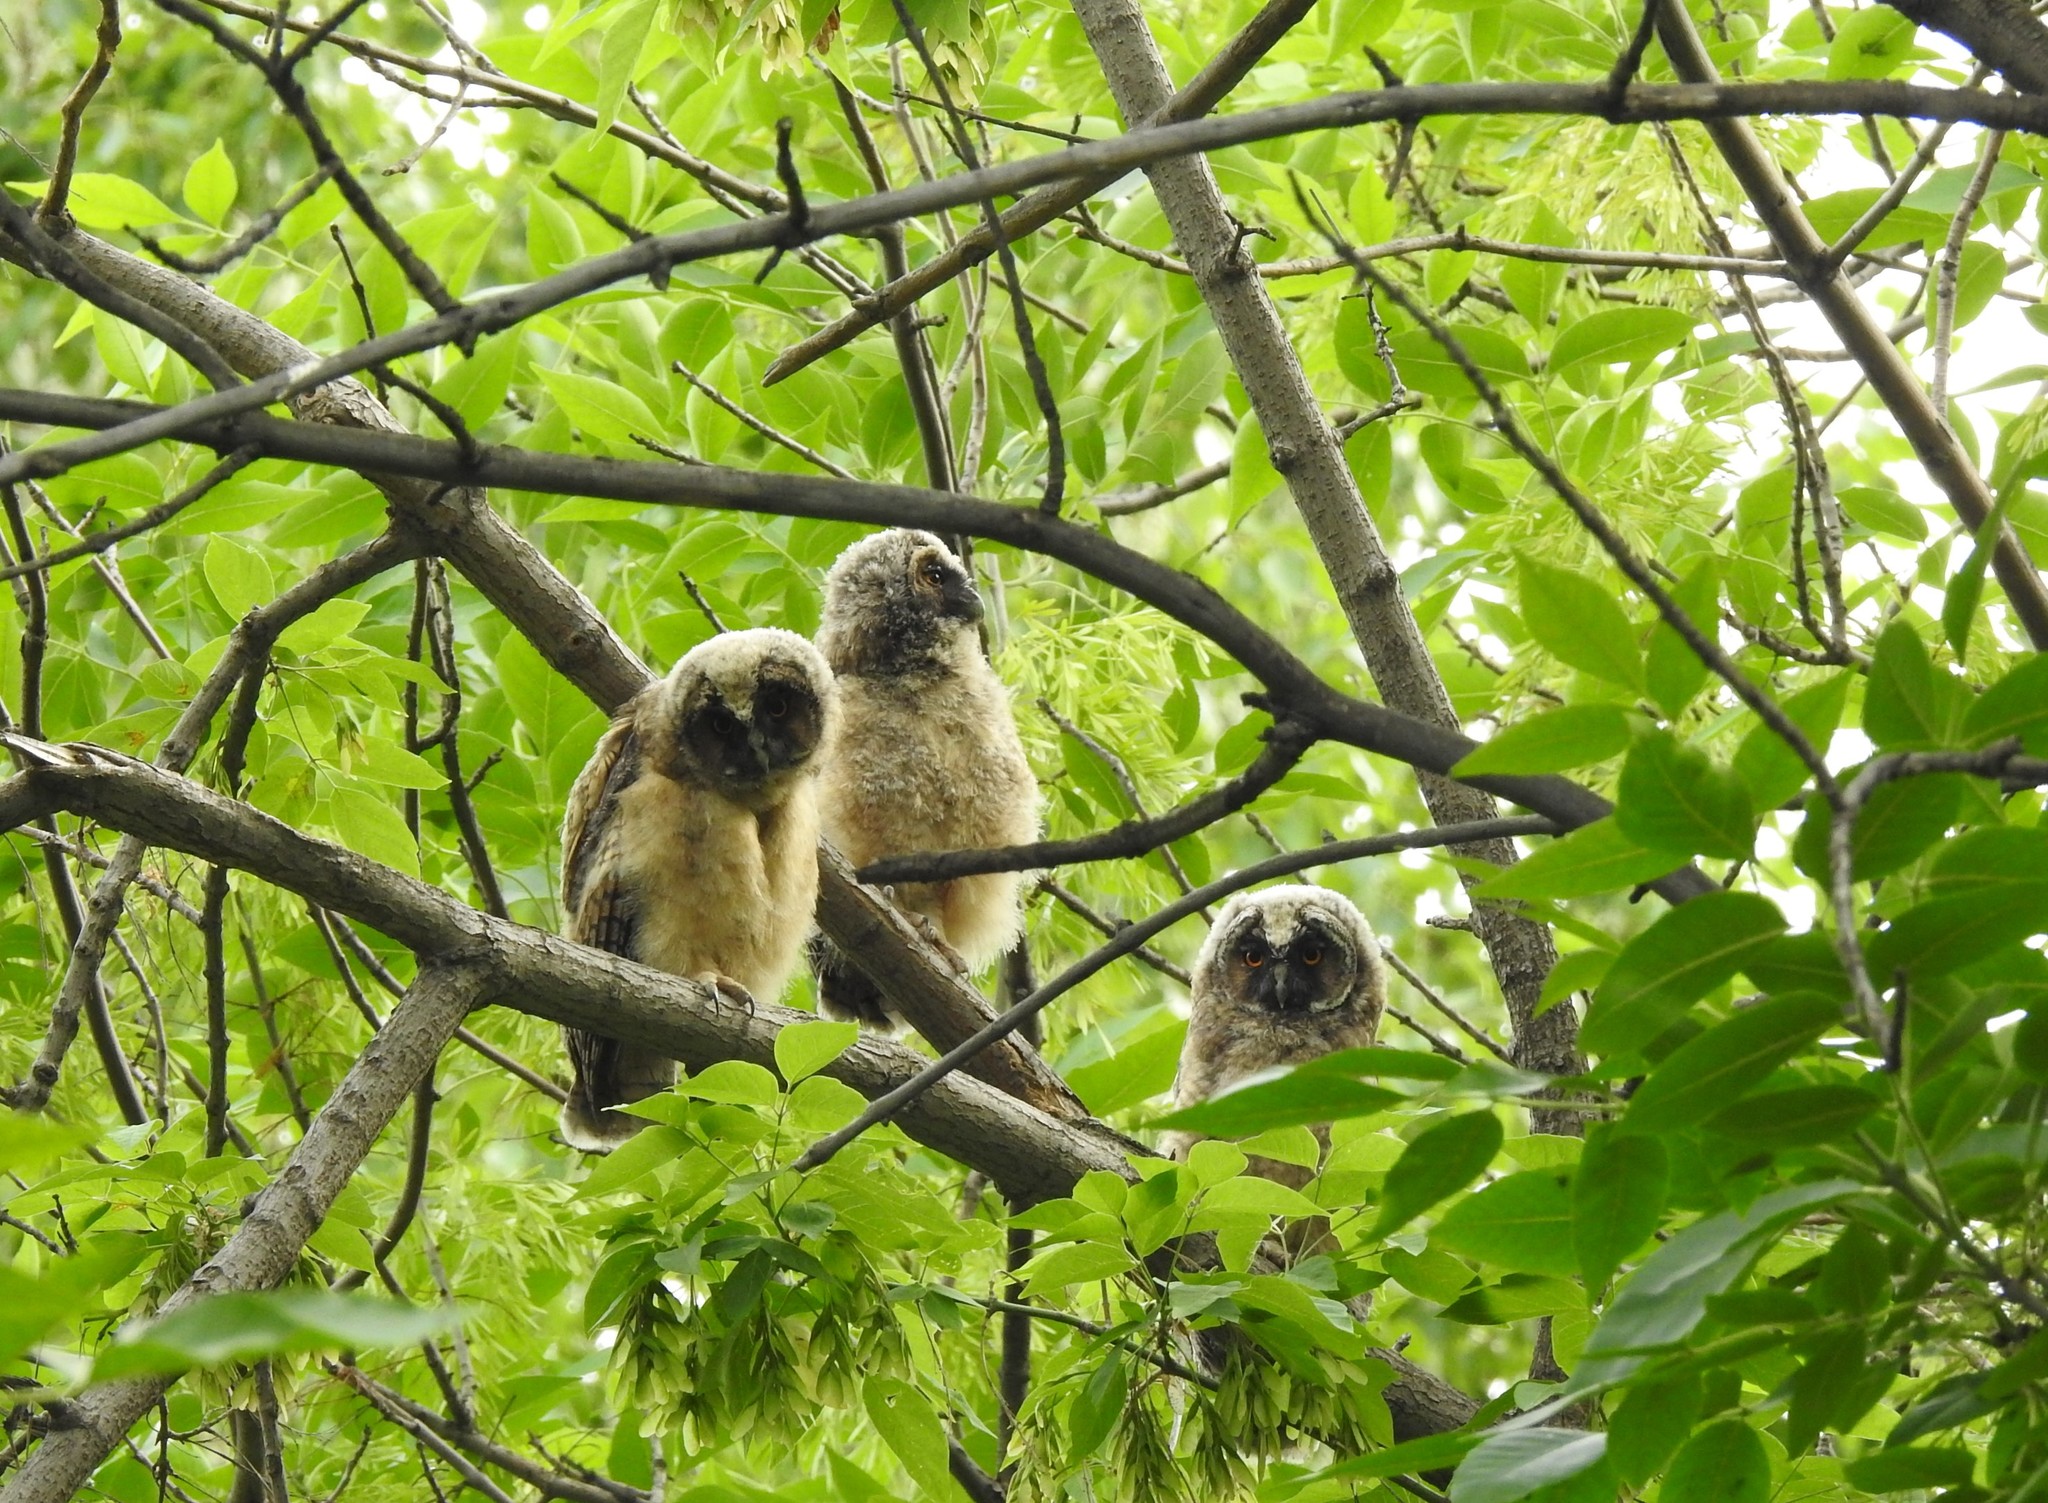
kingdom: Animalia
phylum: Chordata
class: Aves
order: Strigiformes
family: Strigidae
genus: Asio
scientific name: Asio otus
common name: Long-eared owl
